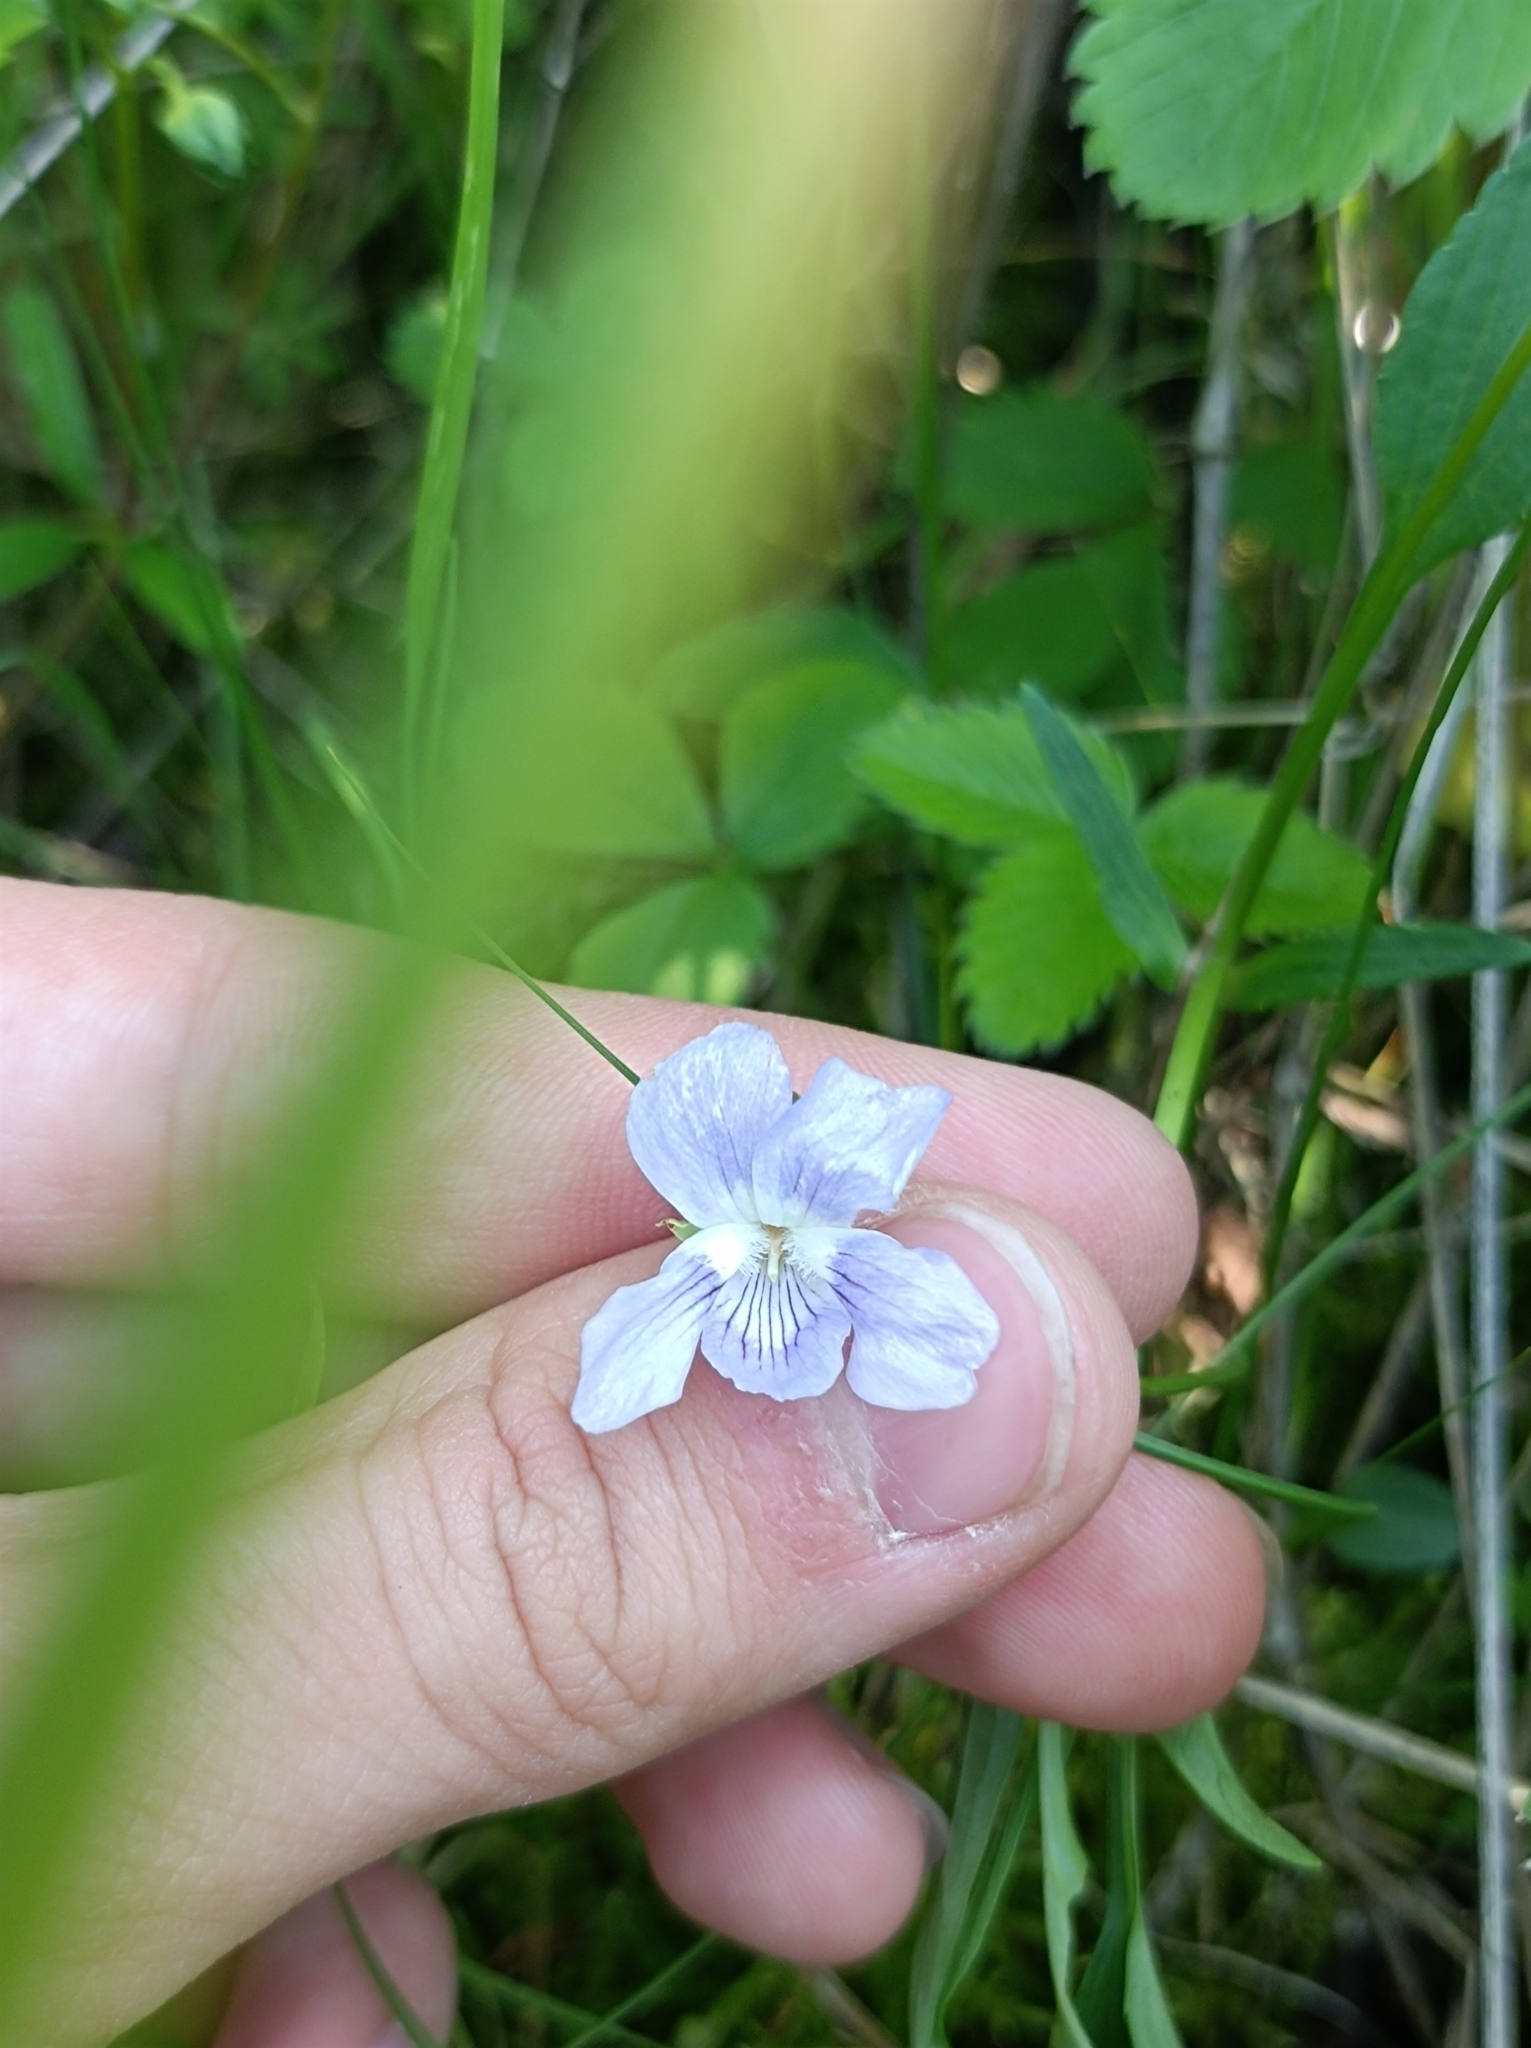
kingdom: Plantae
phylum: Tracheophyta
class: Magnoliopsida
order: Malpighiales
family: Violaceae
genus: Viola
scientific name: Viola pumila
